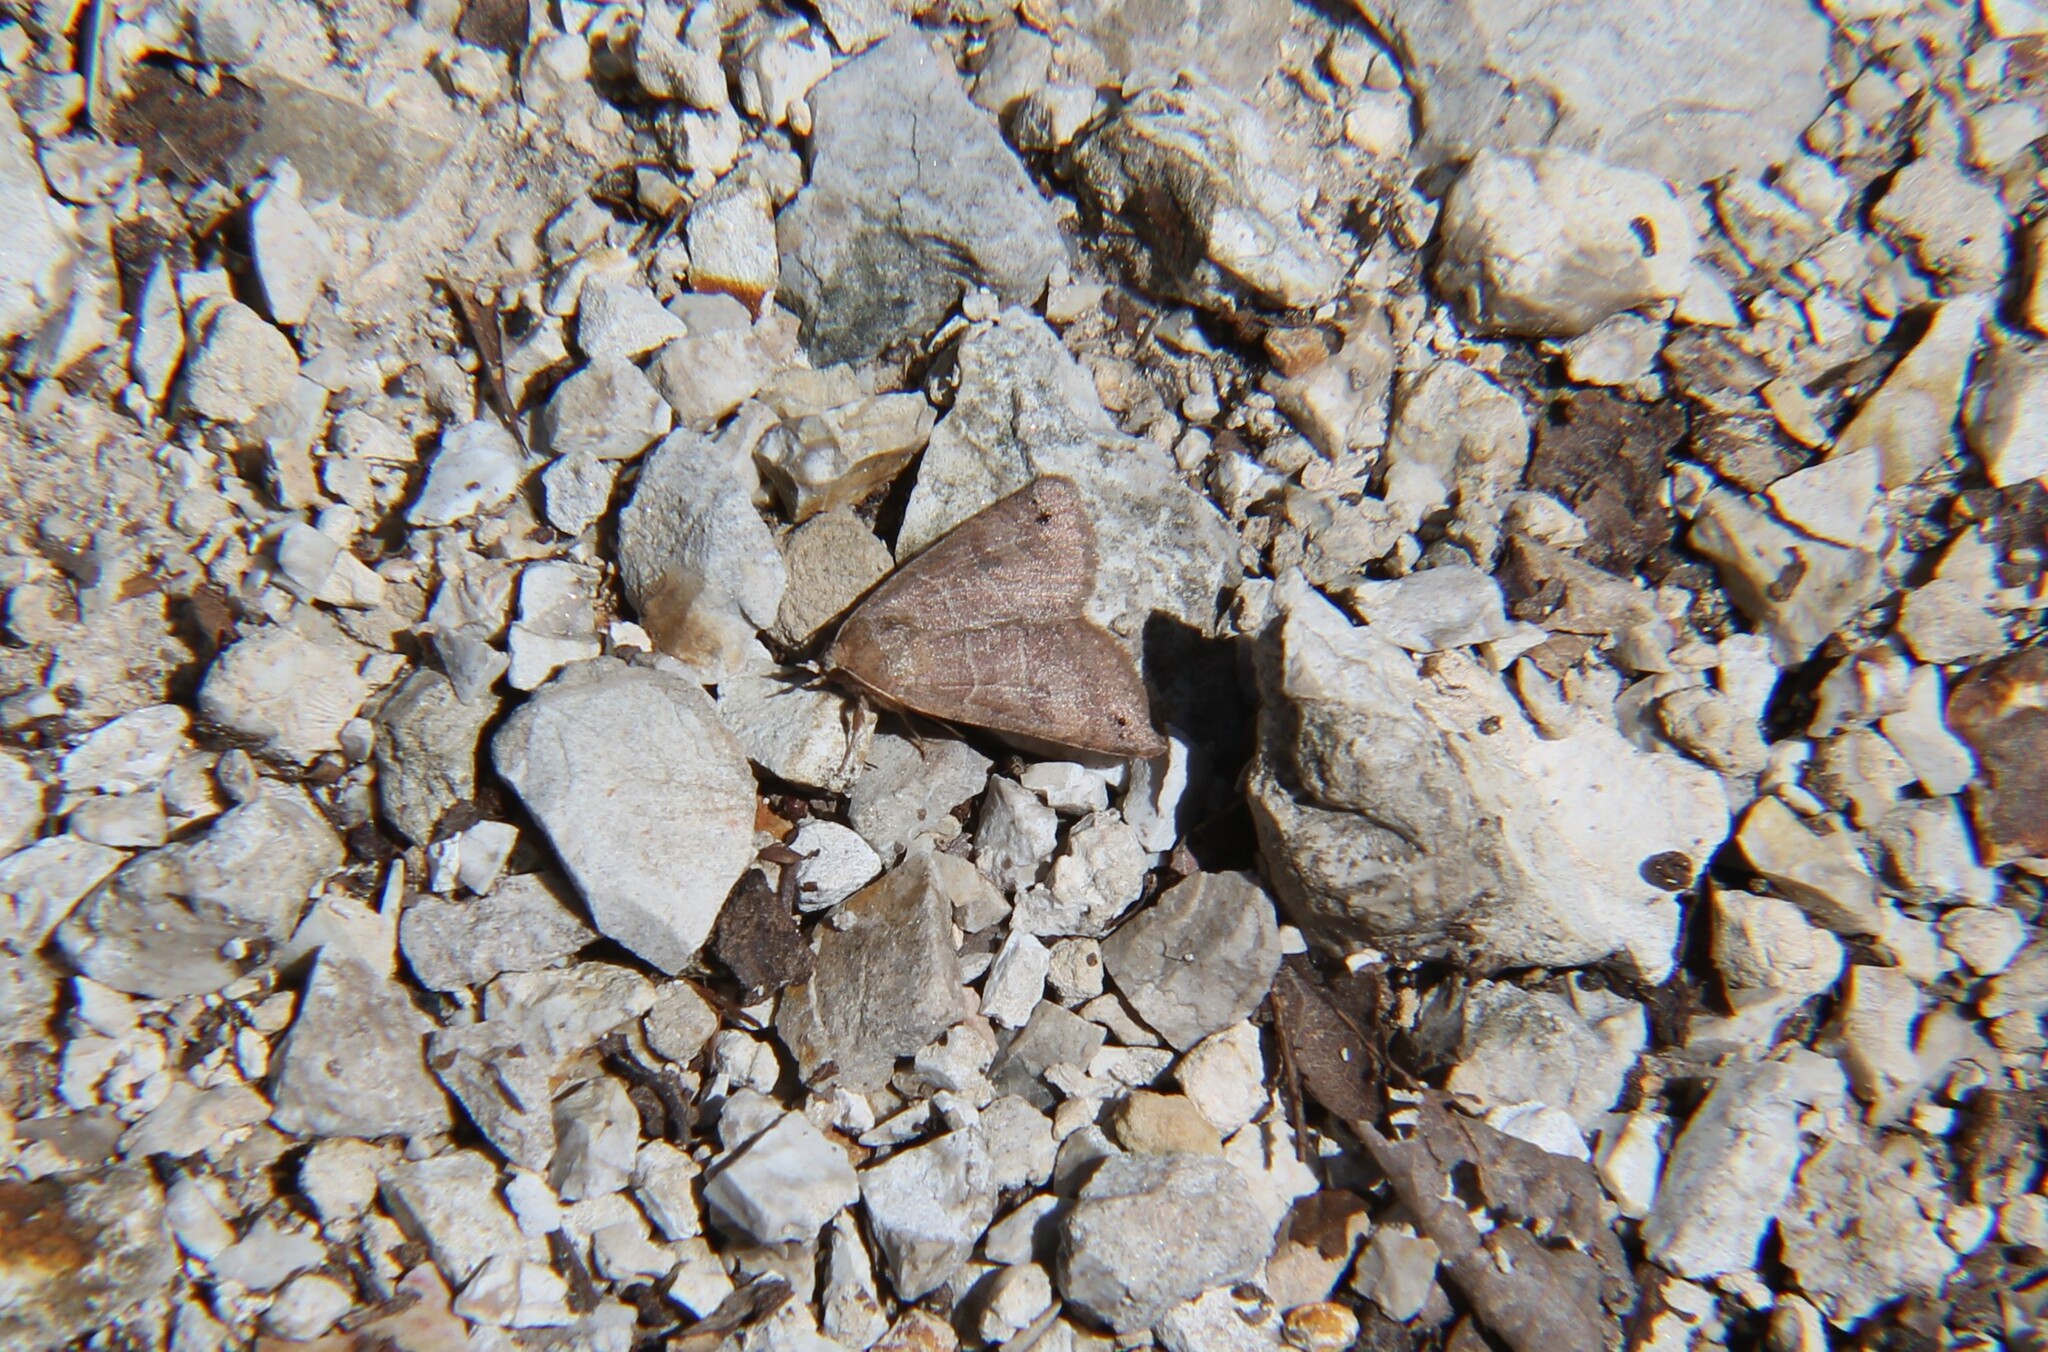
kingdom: Animalia
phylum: Arthropoda
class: Insecta
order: Lepidoptera
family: Erebidae
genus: Cissusa
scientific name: Cissusa spadix
